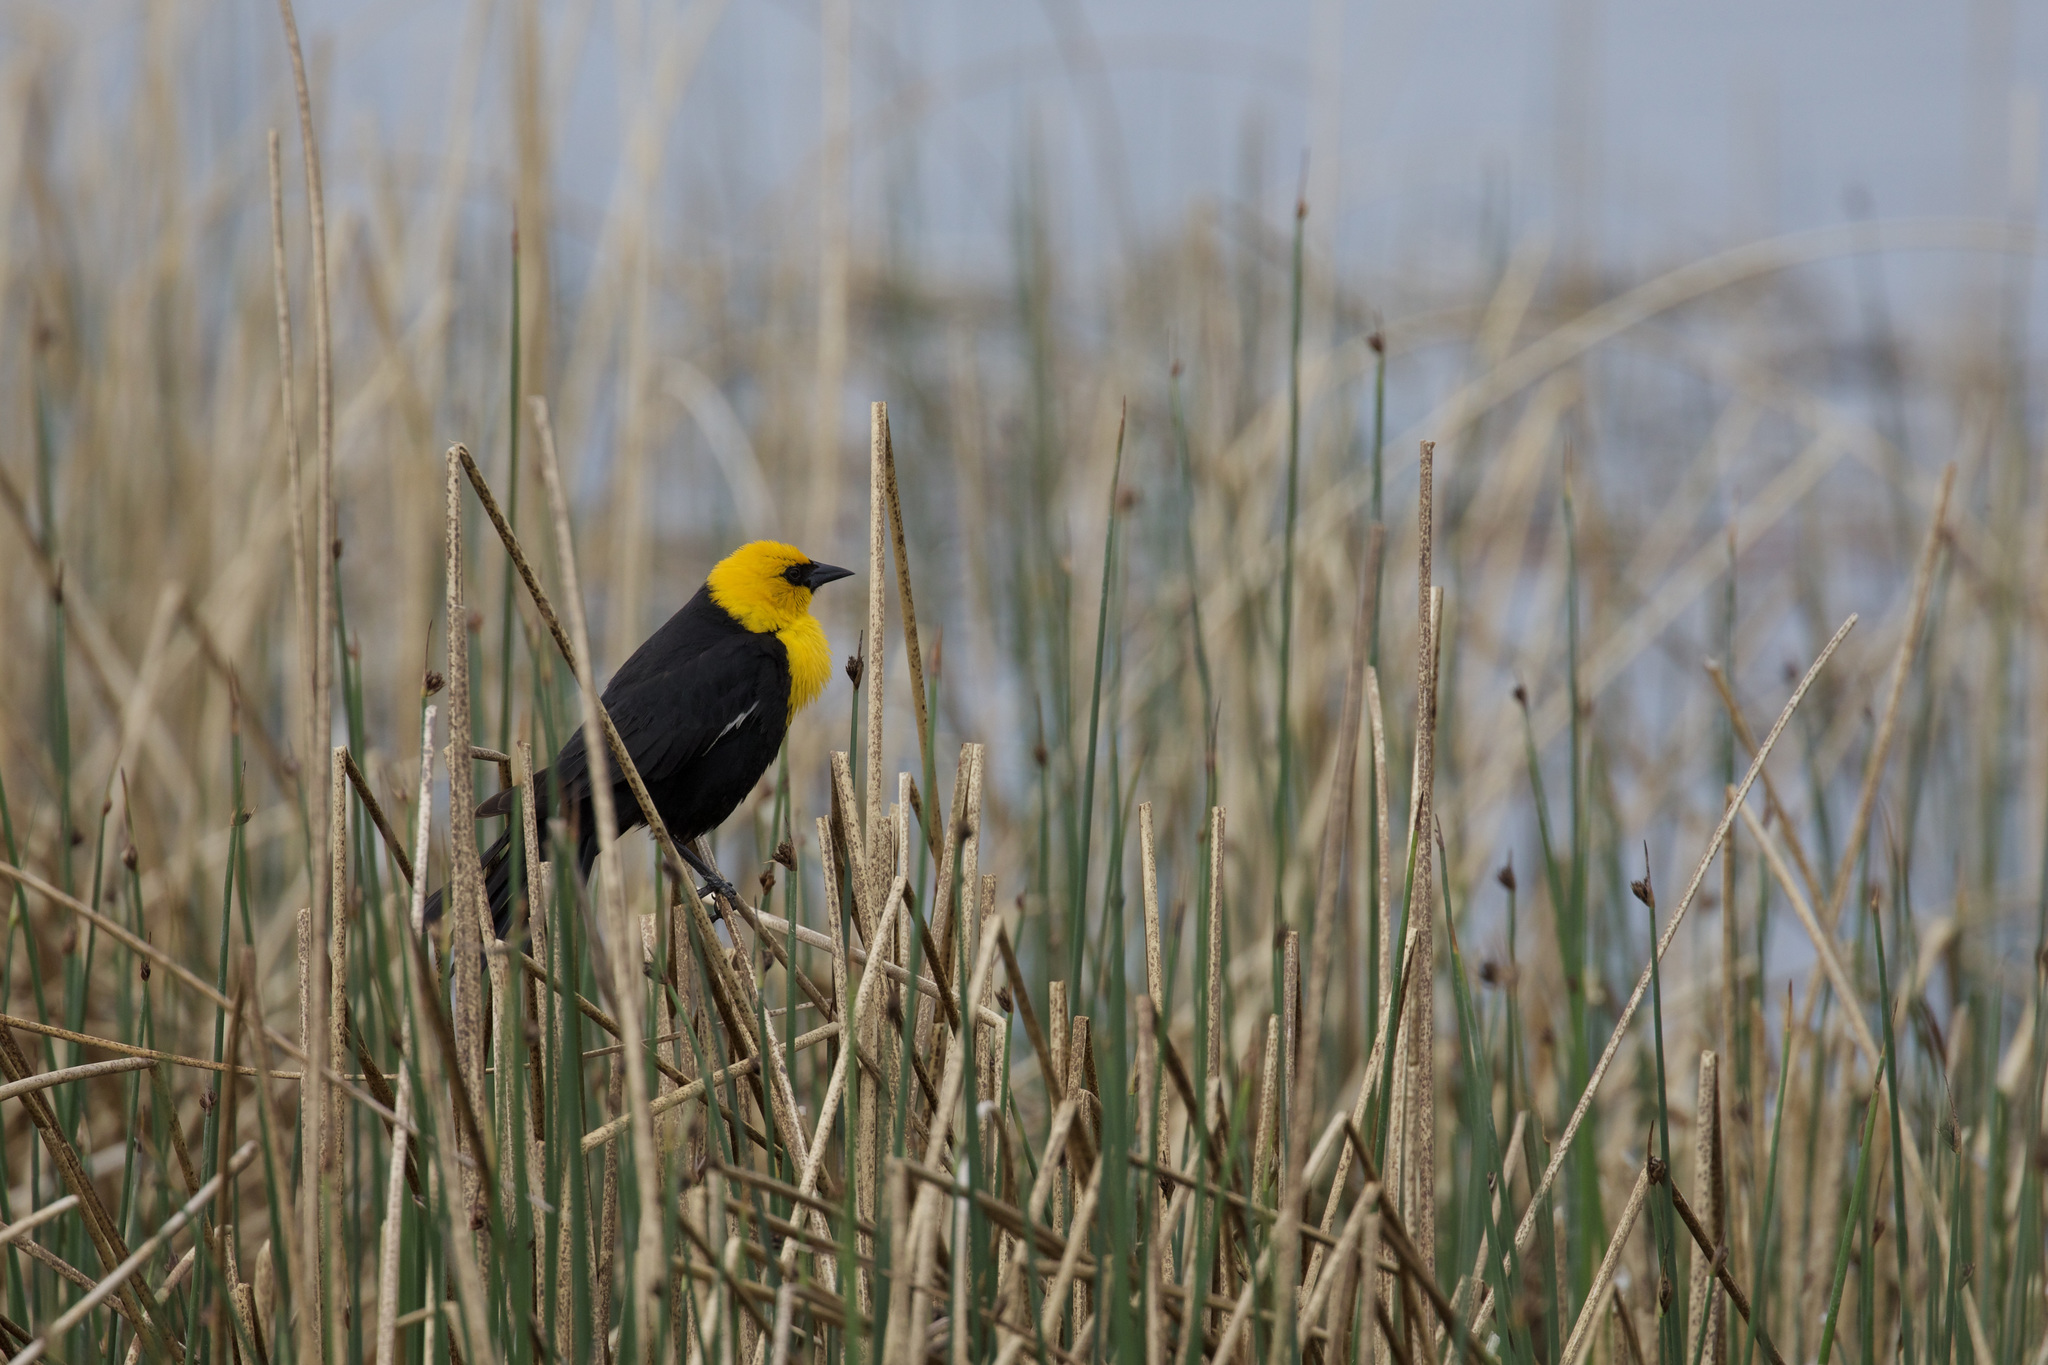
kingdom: Animalia
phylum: Chordata
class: Aves
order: Passeriformes
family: Icteridae
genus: Xanthocephalus
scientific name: Xanthocephalus xanthocephalus
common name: Yellow-headed blackbird
